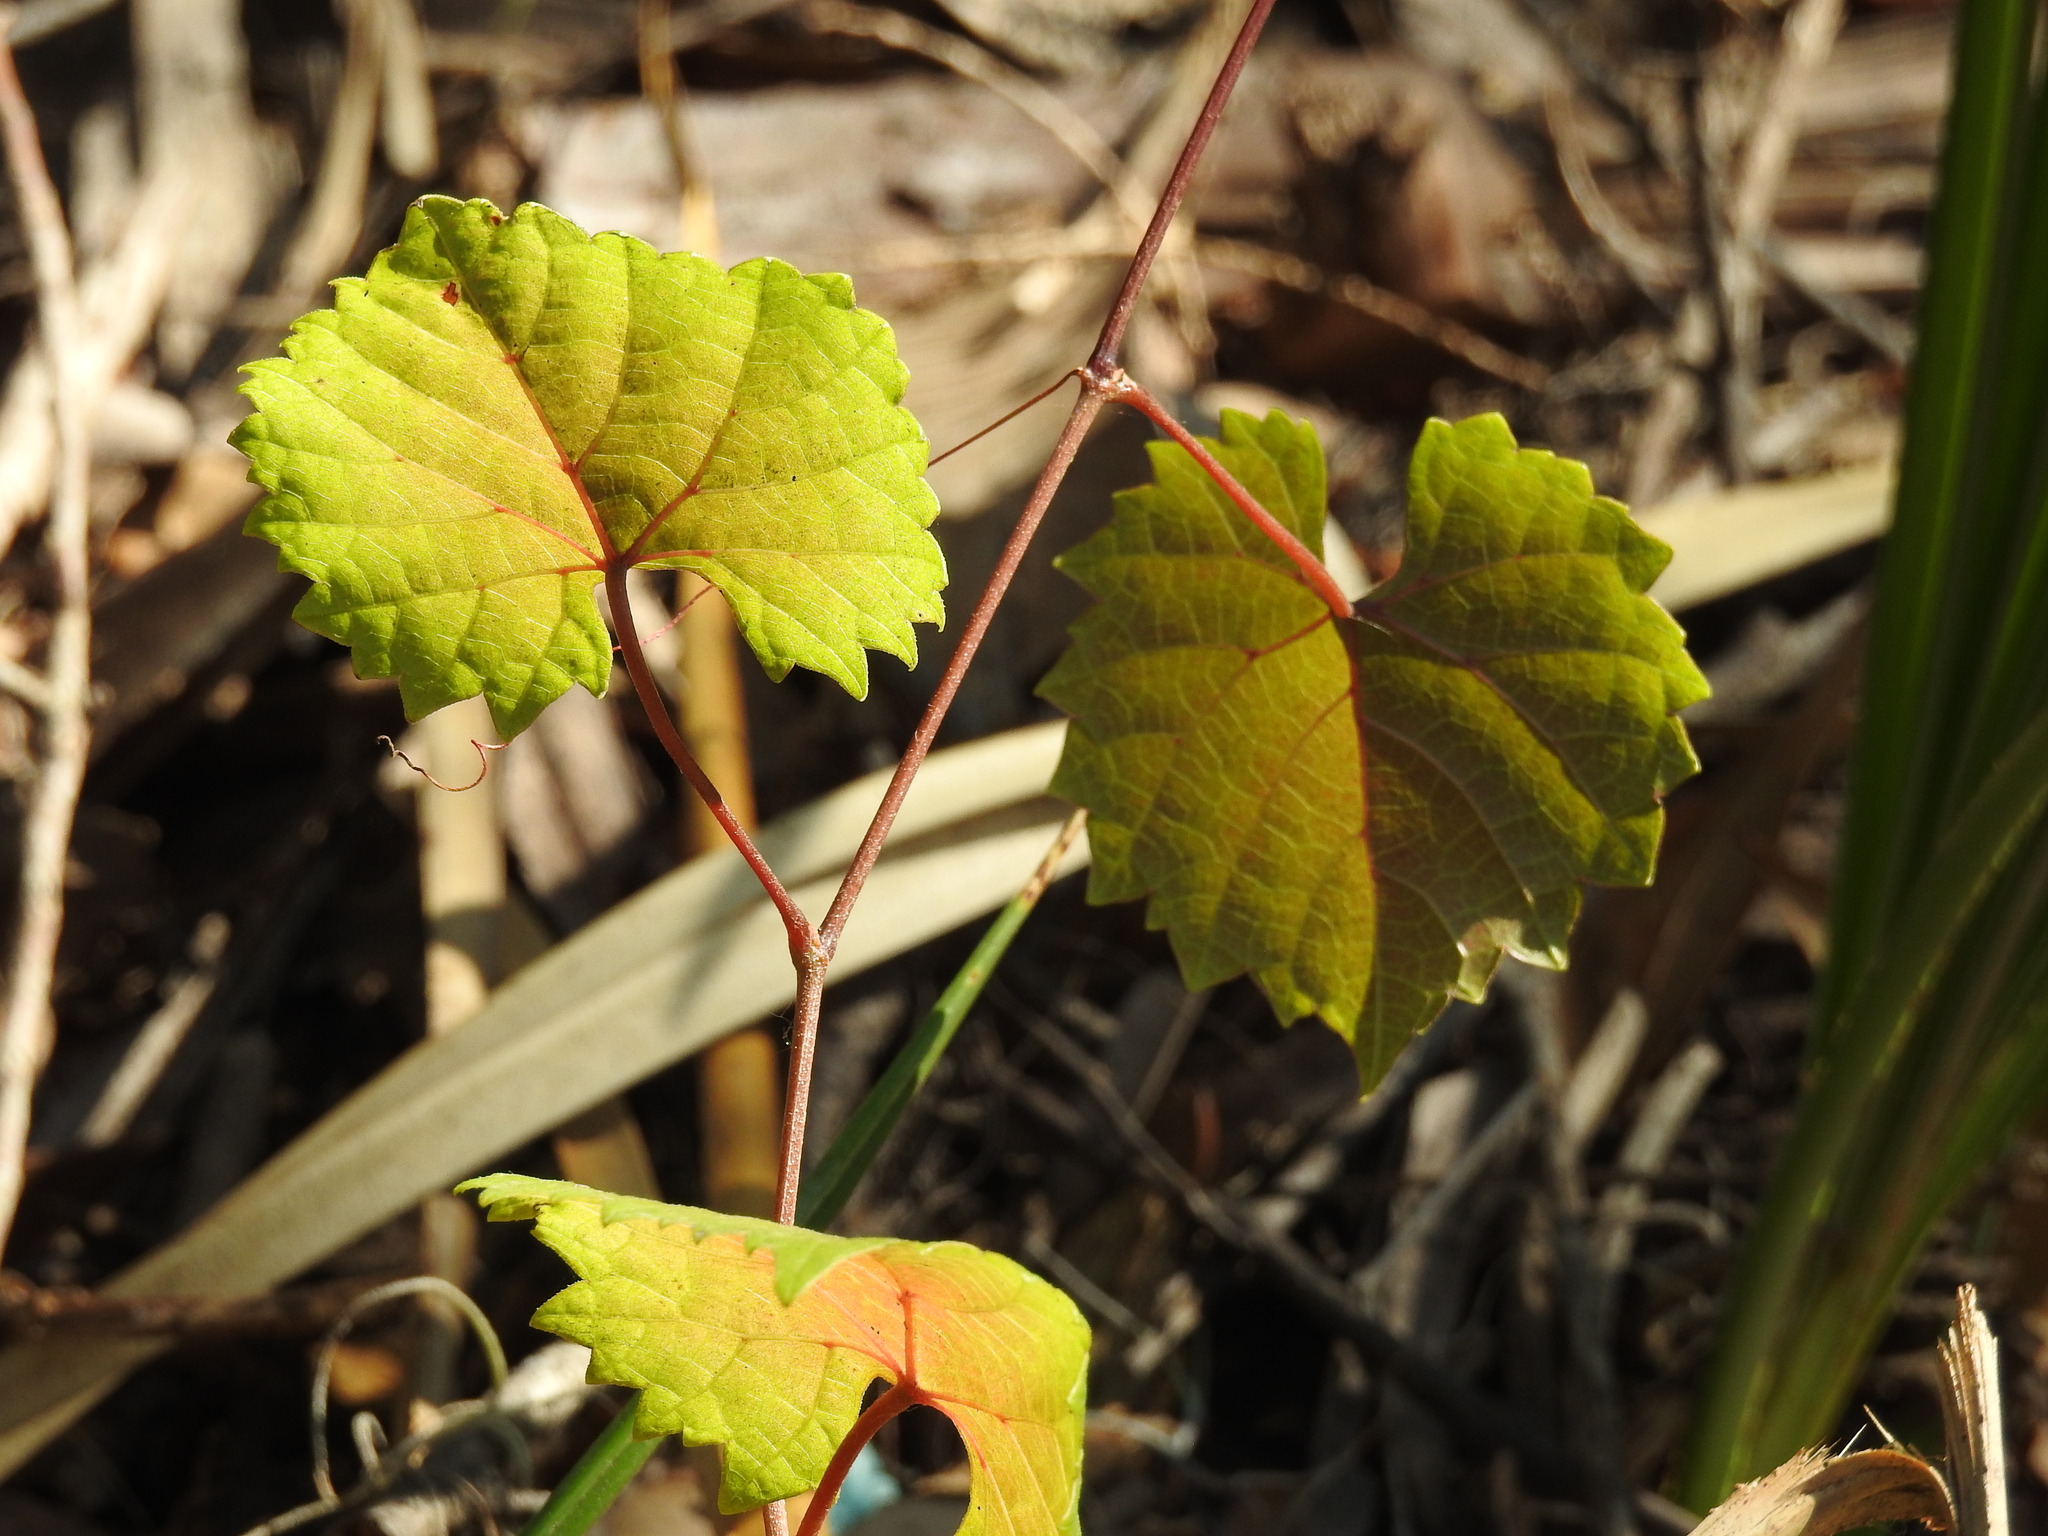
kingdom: Plantae
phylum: Tracheophyta
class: Magnoliopsida
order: Vitales
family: Vitaceae
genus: Vitis
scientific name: Vitis rotundifolia
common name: Muscadine grape
